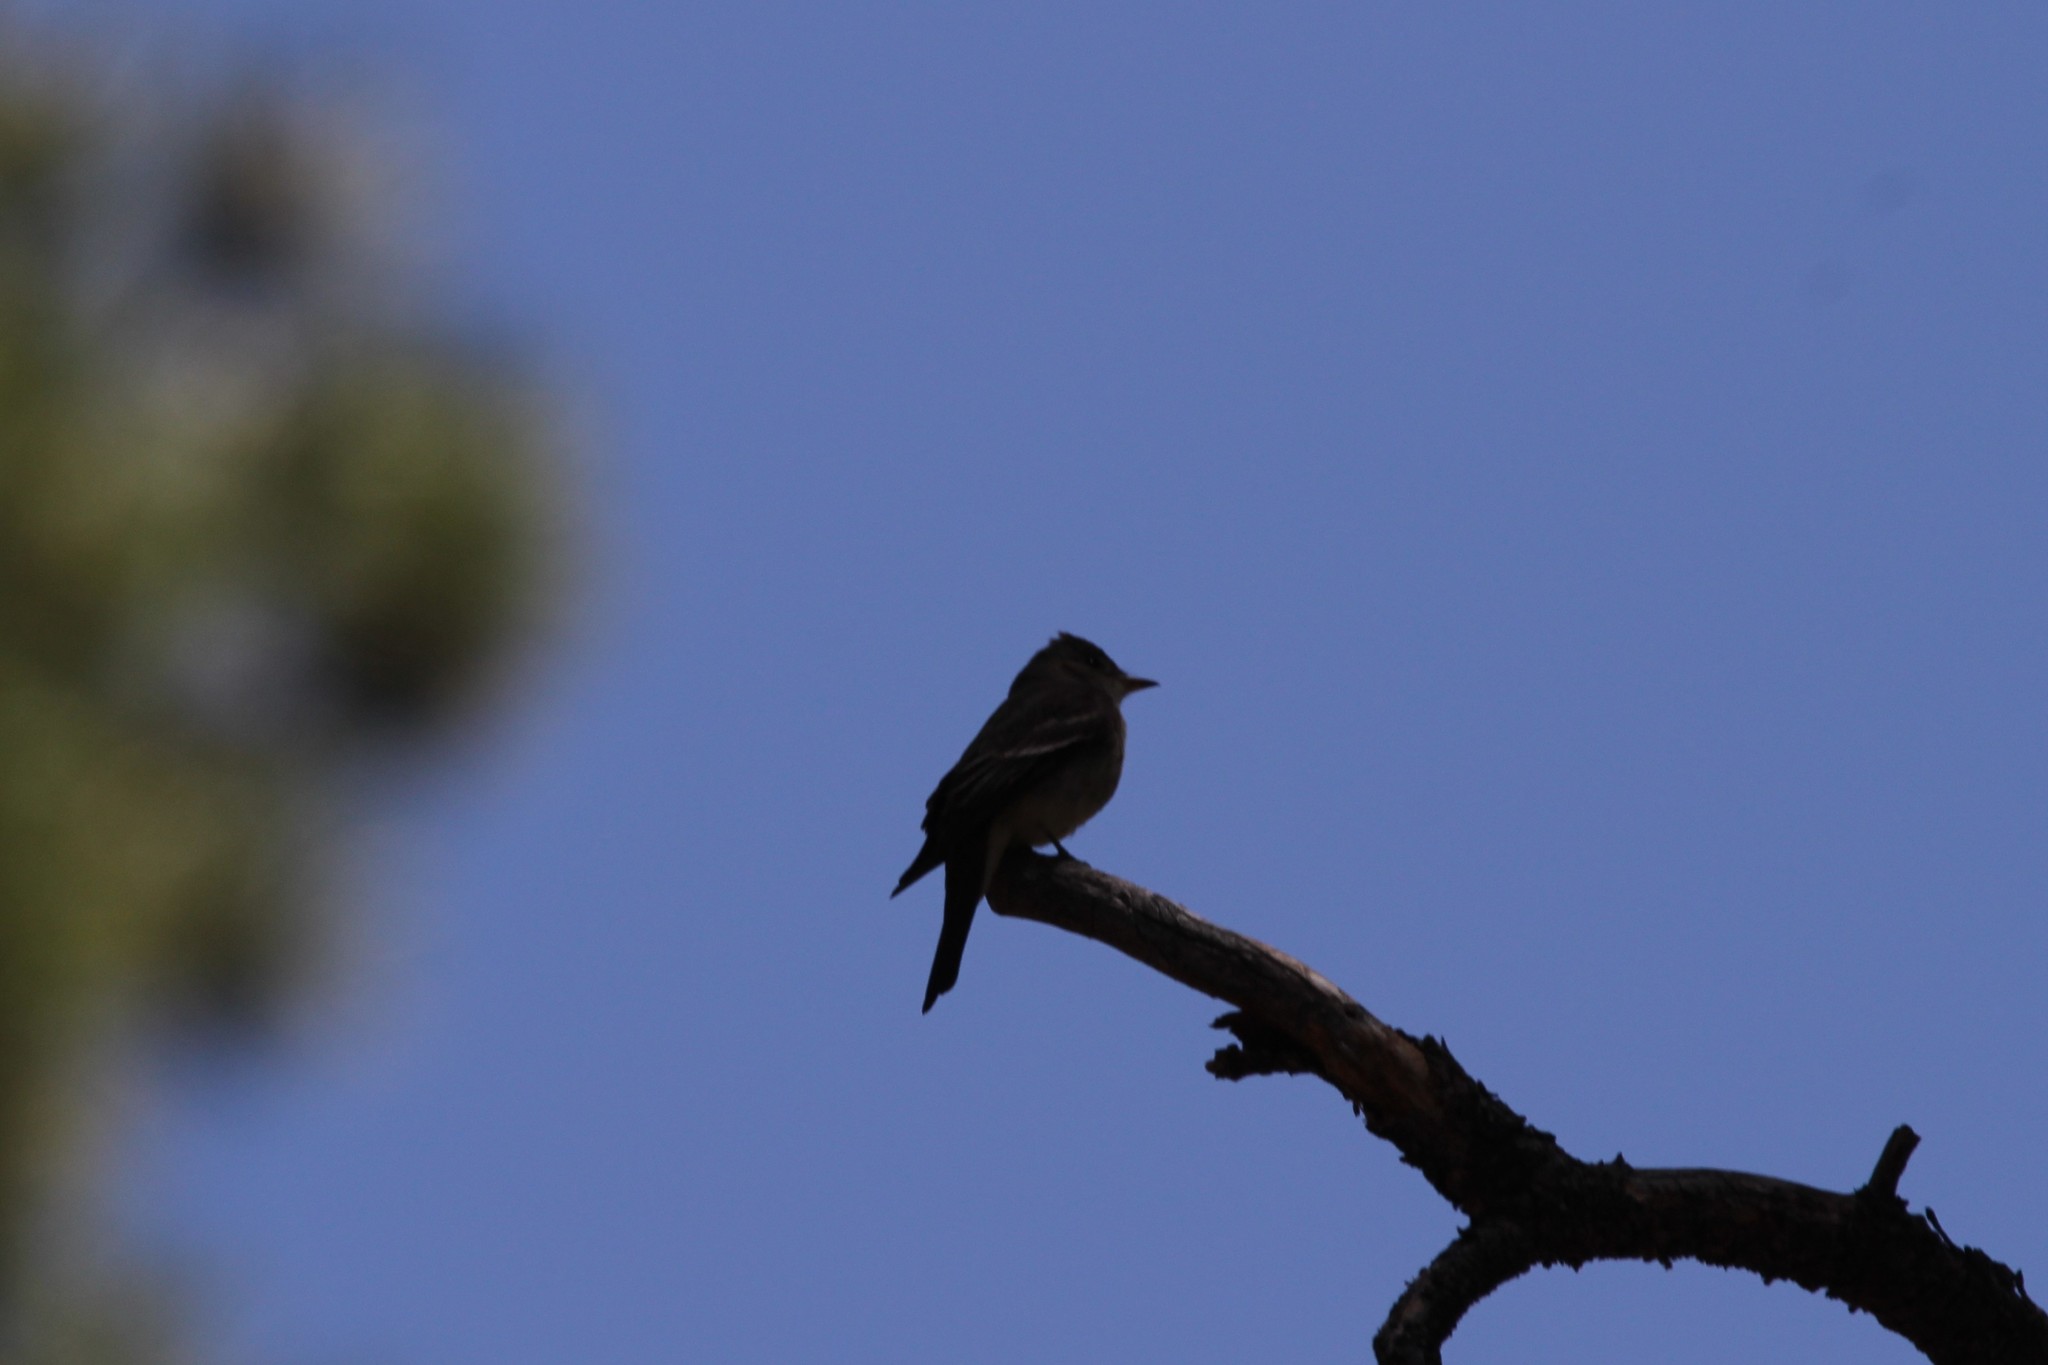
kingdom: Animalia
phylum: Chordata
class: Aves
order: Passeriformes
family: Tyrannidae
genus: Contopus
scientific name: Contopus sordidulus
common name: Western wood-pewee
